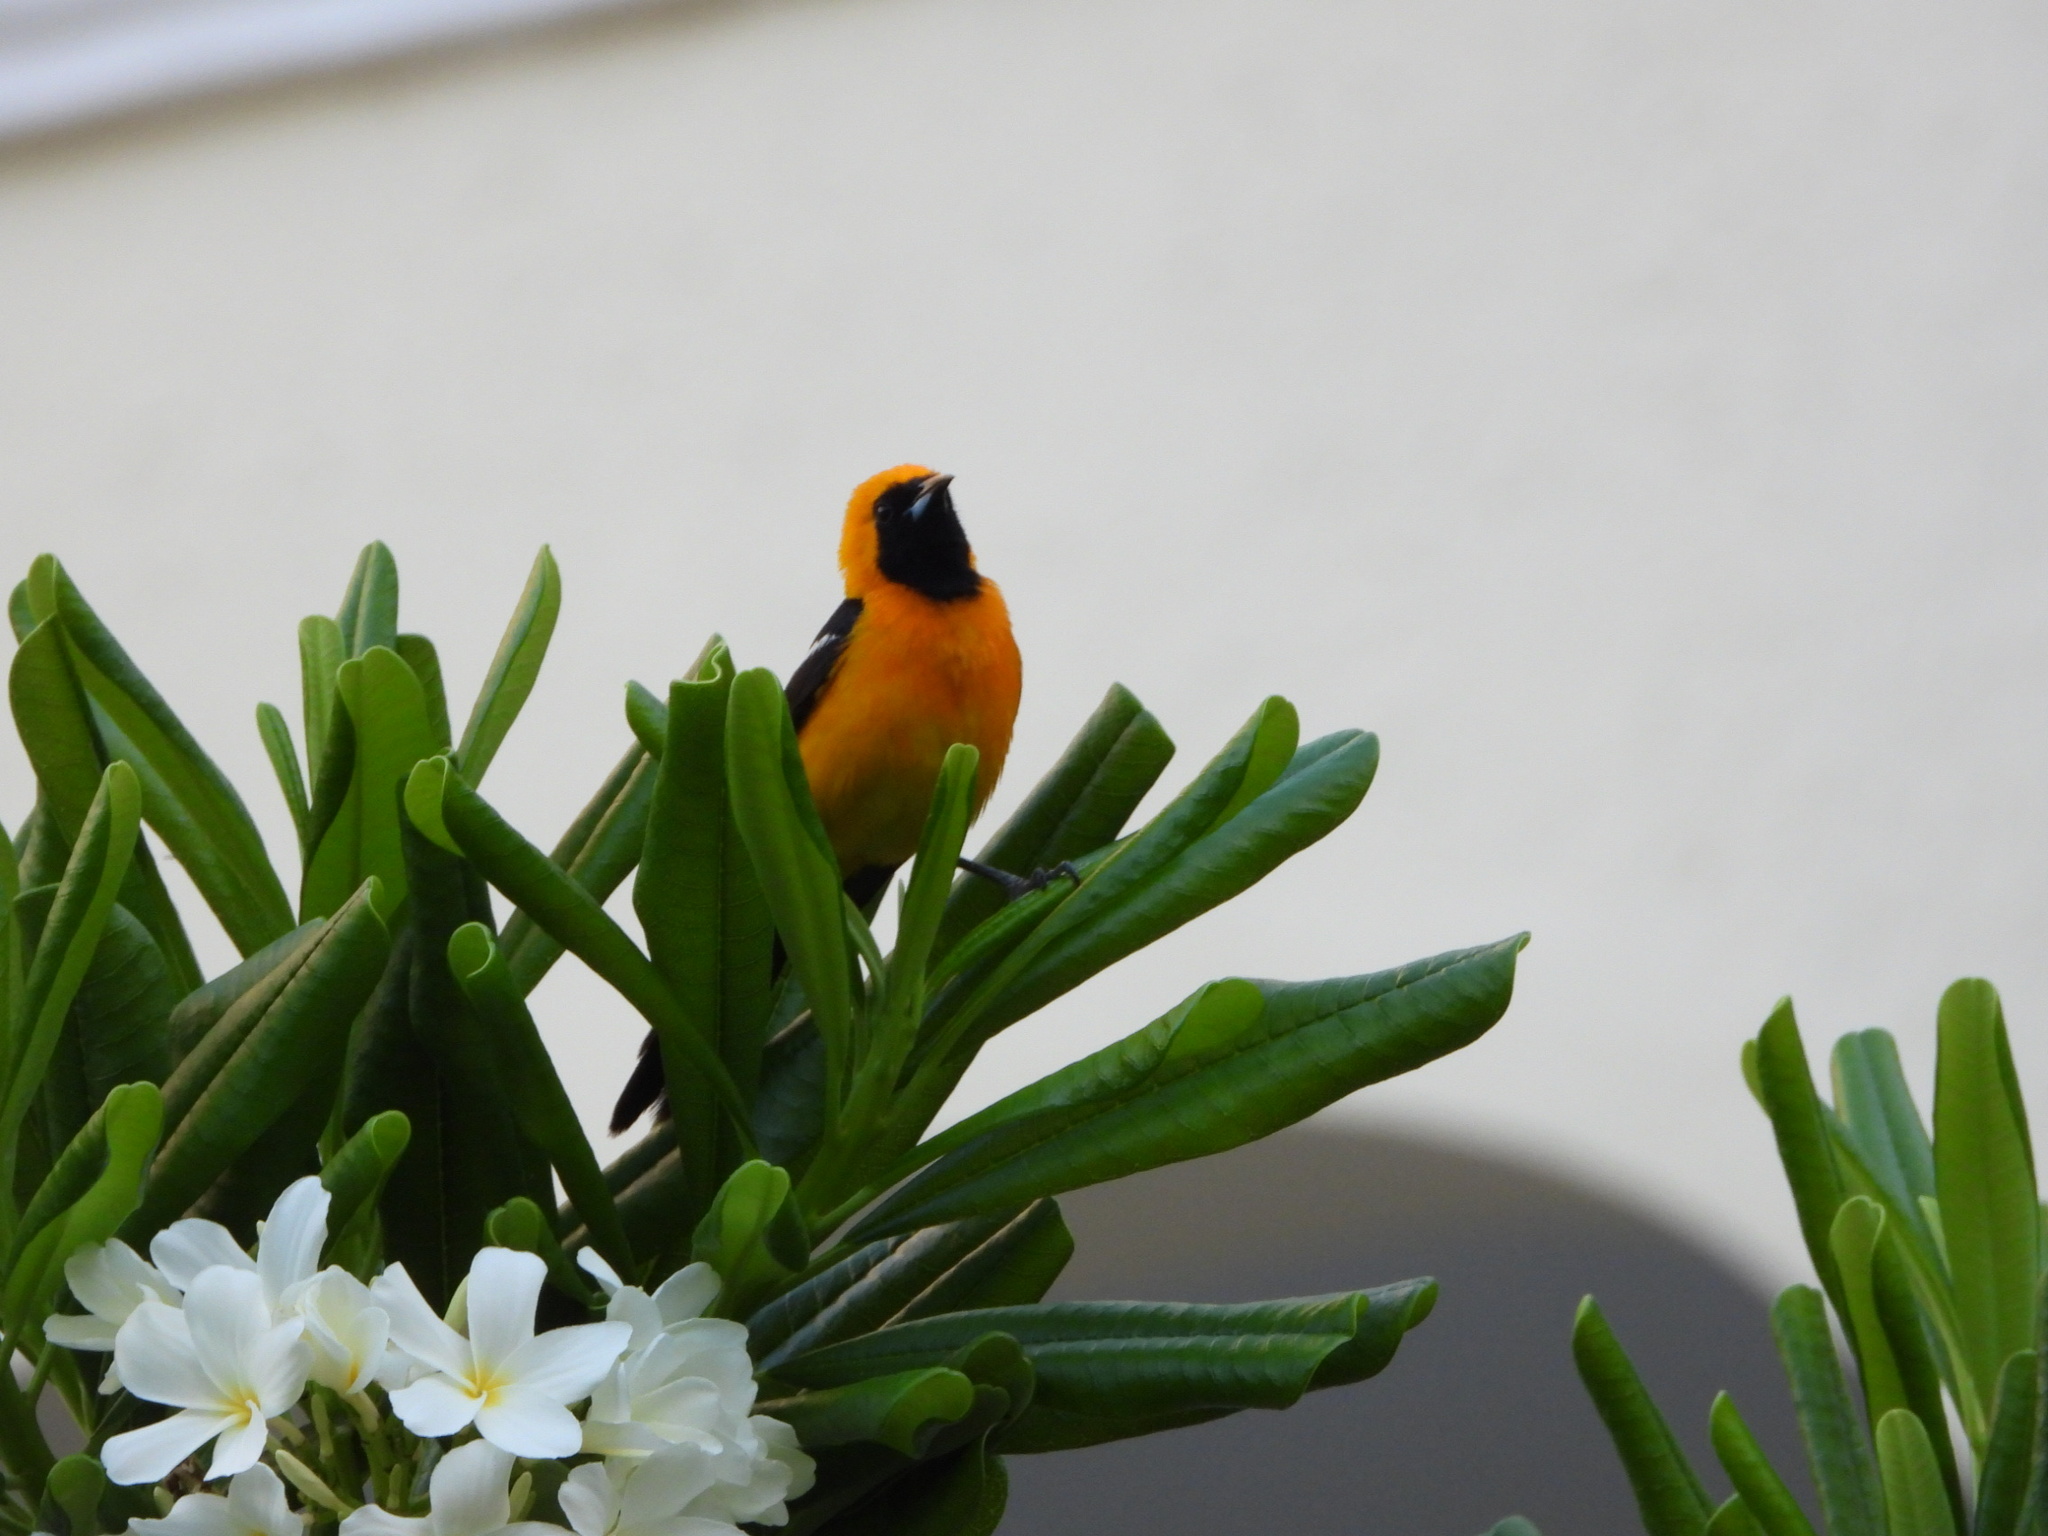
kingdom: Animalia
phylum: Chordata
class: Aves
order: Passeriformes
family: Icteridae
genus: Icterus
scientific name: Icterus cucullatus
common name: Hooded oriole
